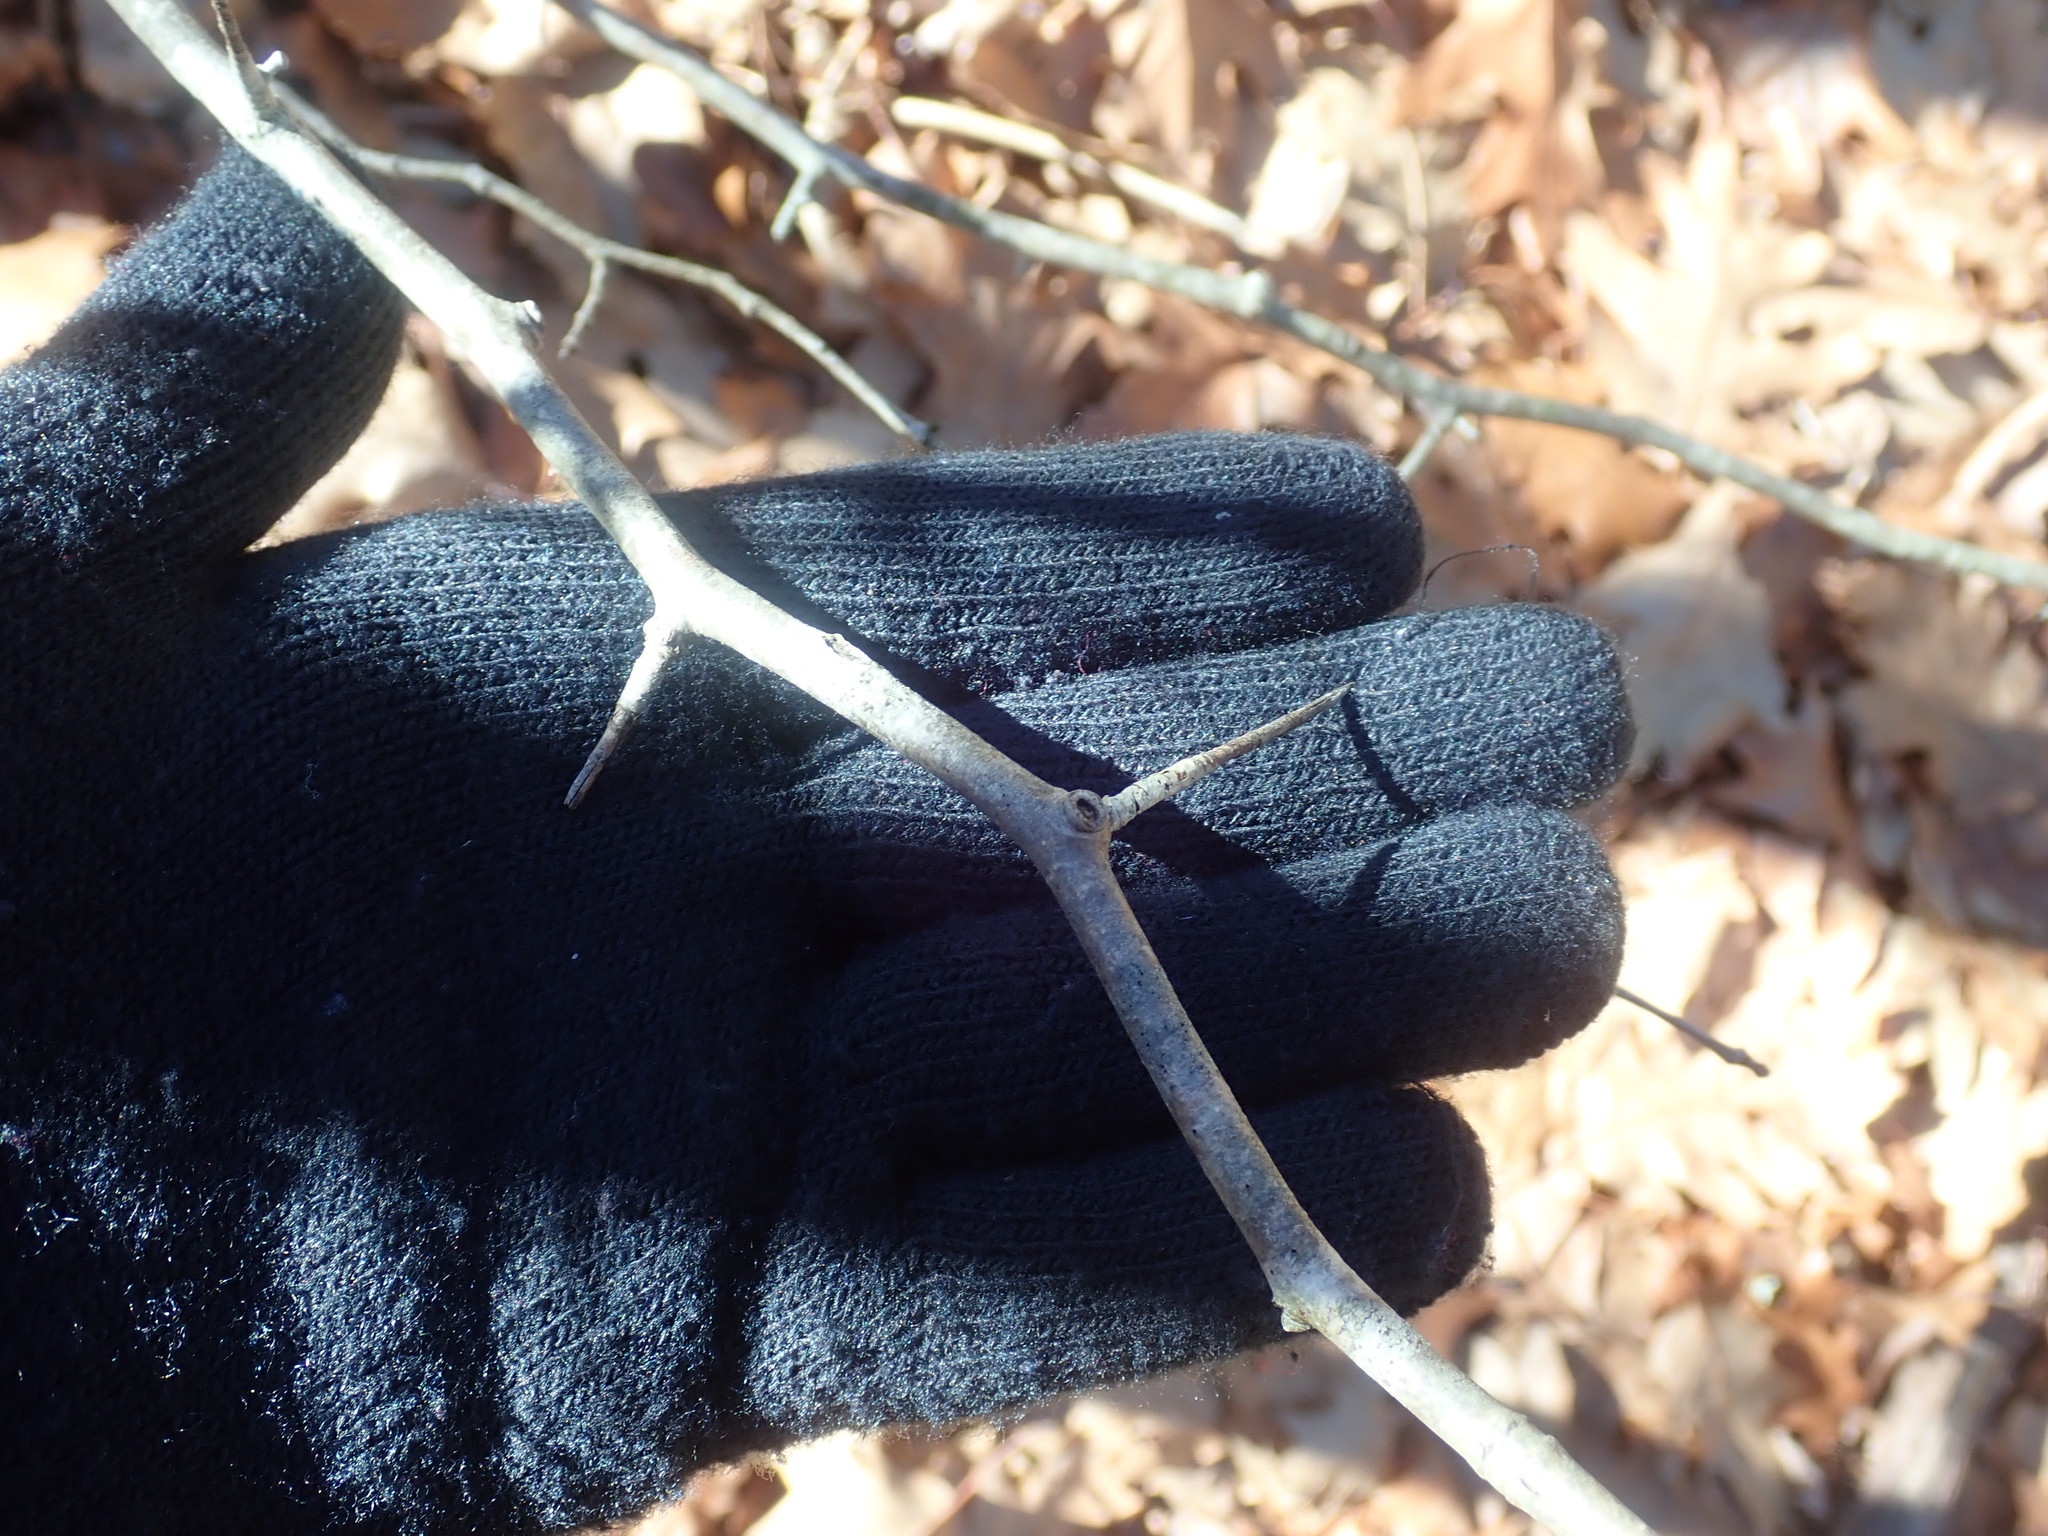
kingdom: Plantae
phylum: Tracheophyta
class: Magnoliopsida
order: Rosales
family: Rosaceae
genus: Crataegus
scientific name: Crataegus
